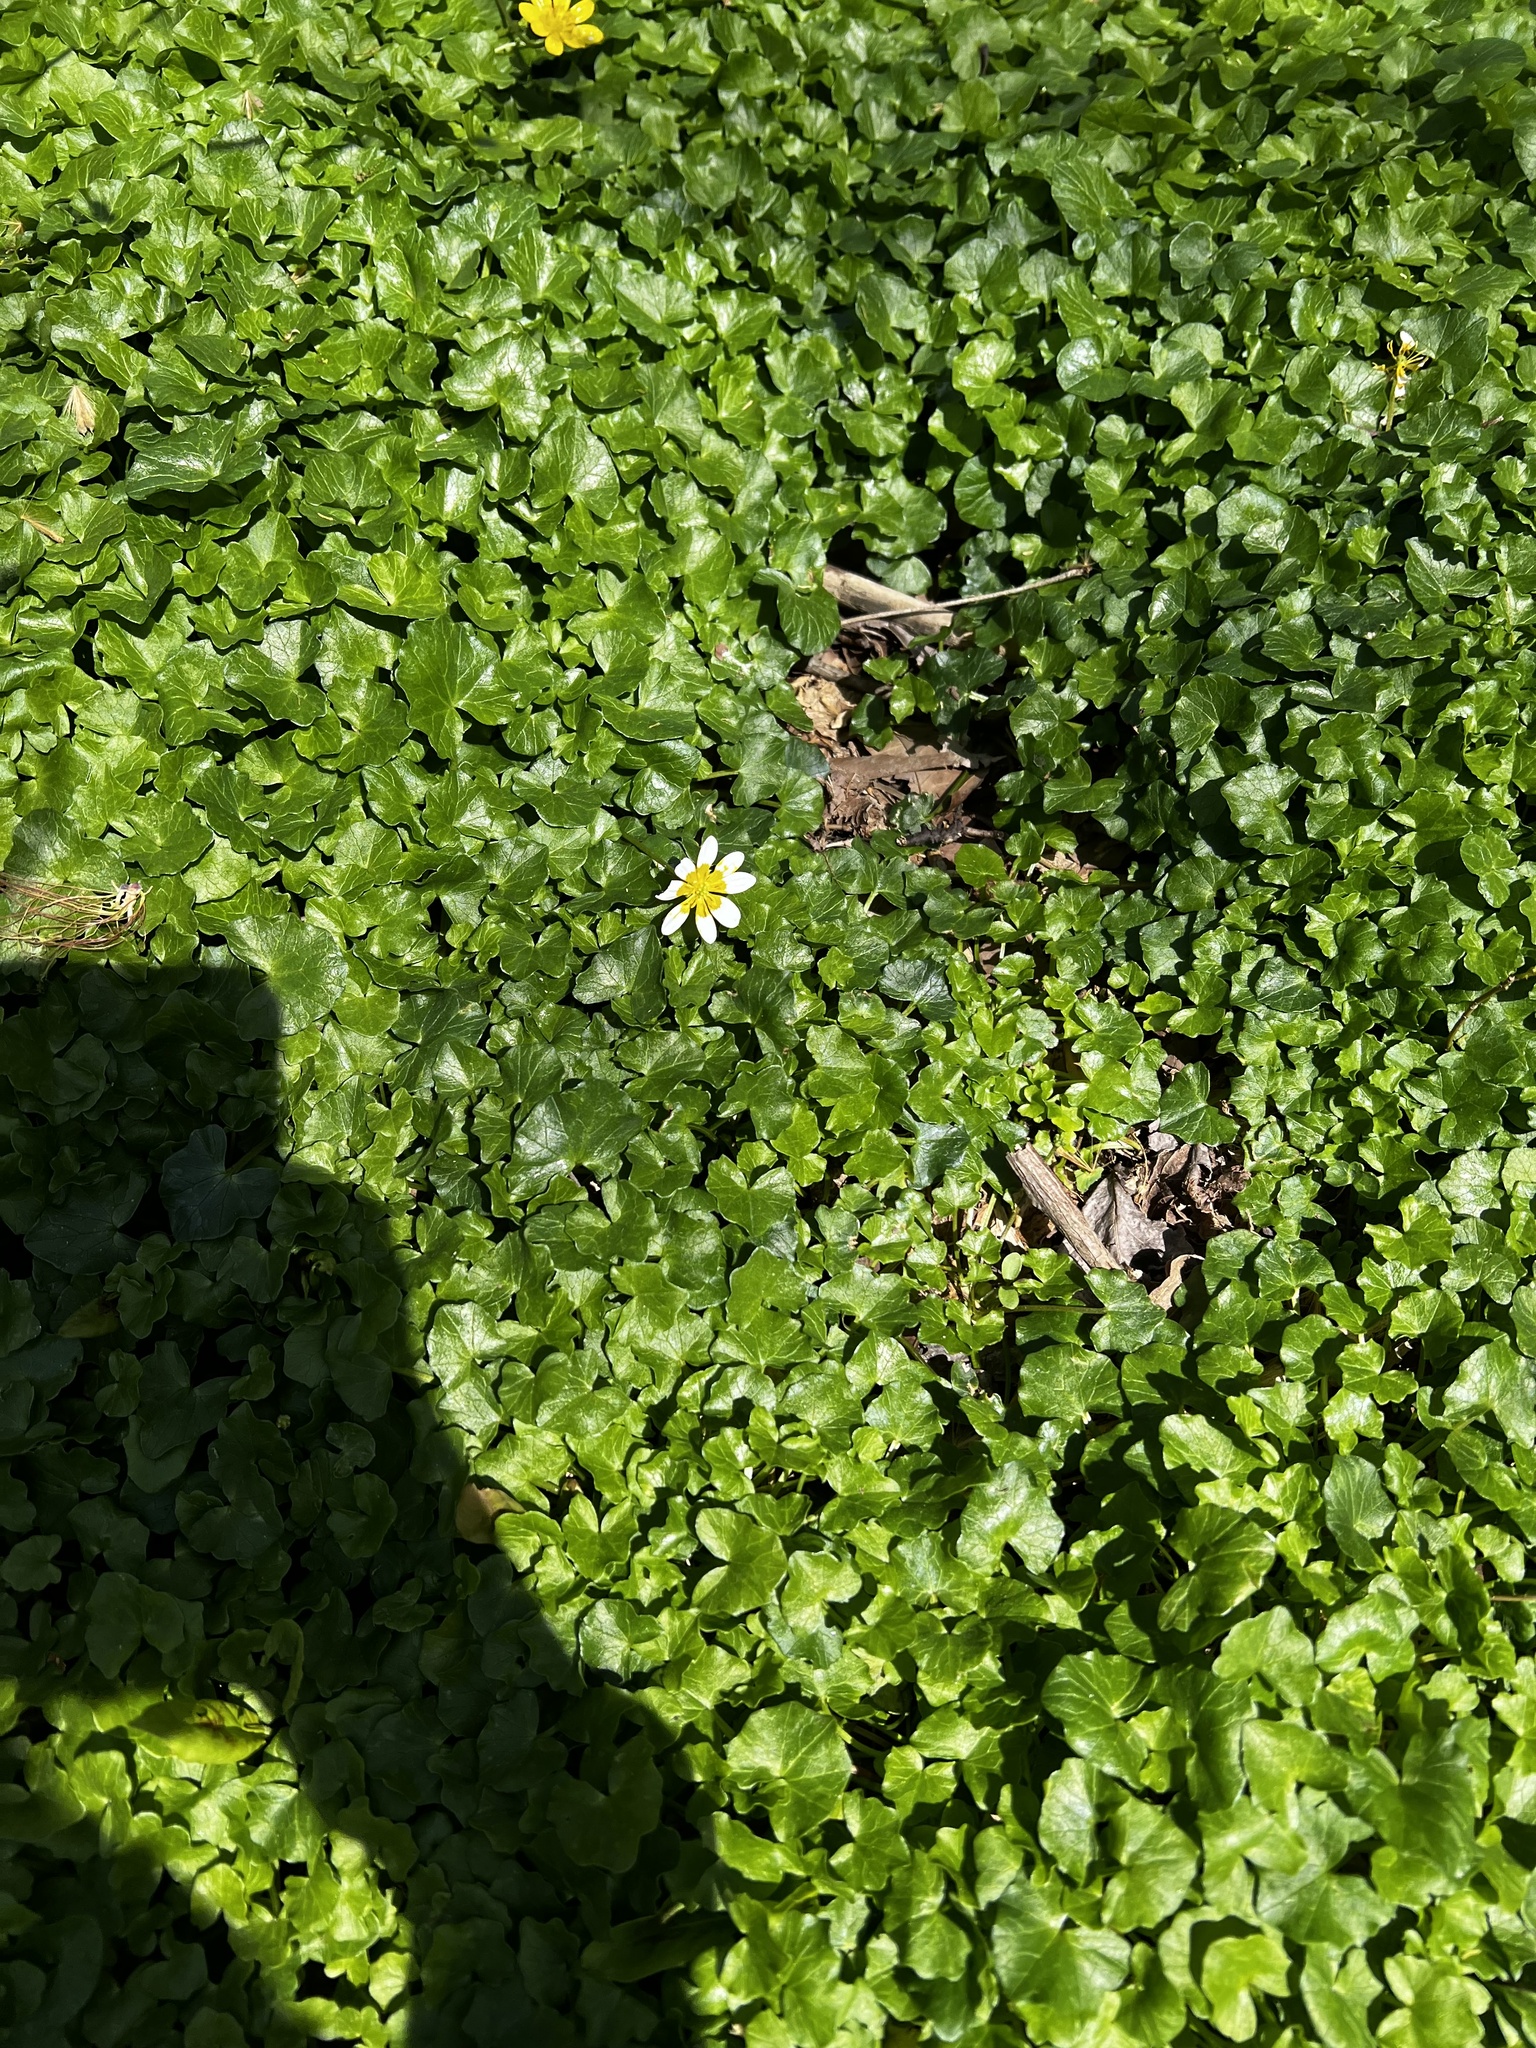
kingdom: Plantae
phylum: Tracheophyta
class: Magnoliopsida
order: Ranunculales
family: Ranunculaceae
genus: Ficaria
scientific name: Ficaria verna
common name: Lesser celandine
